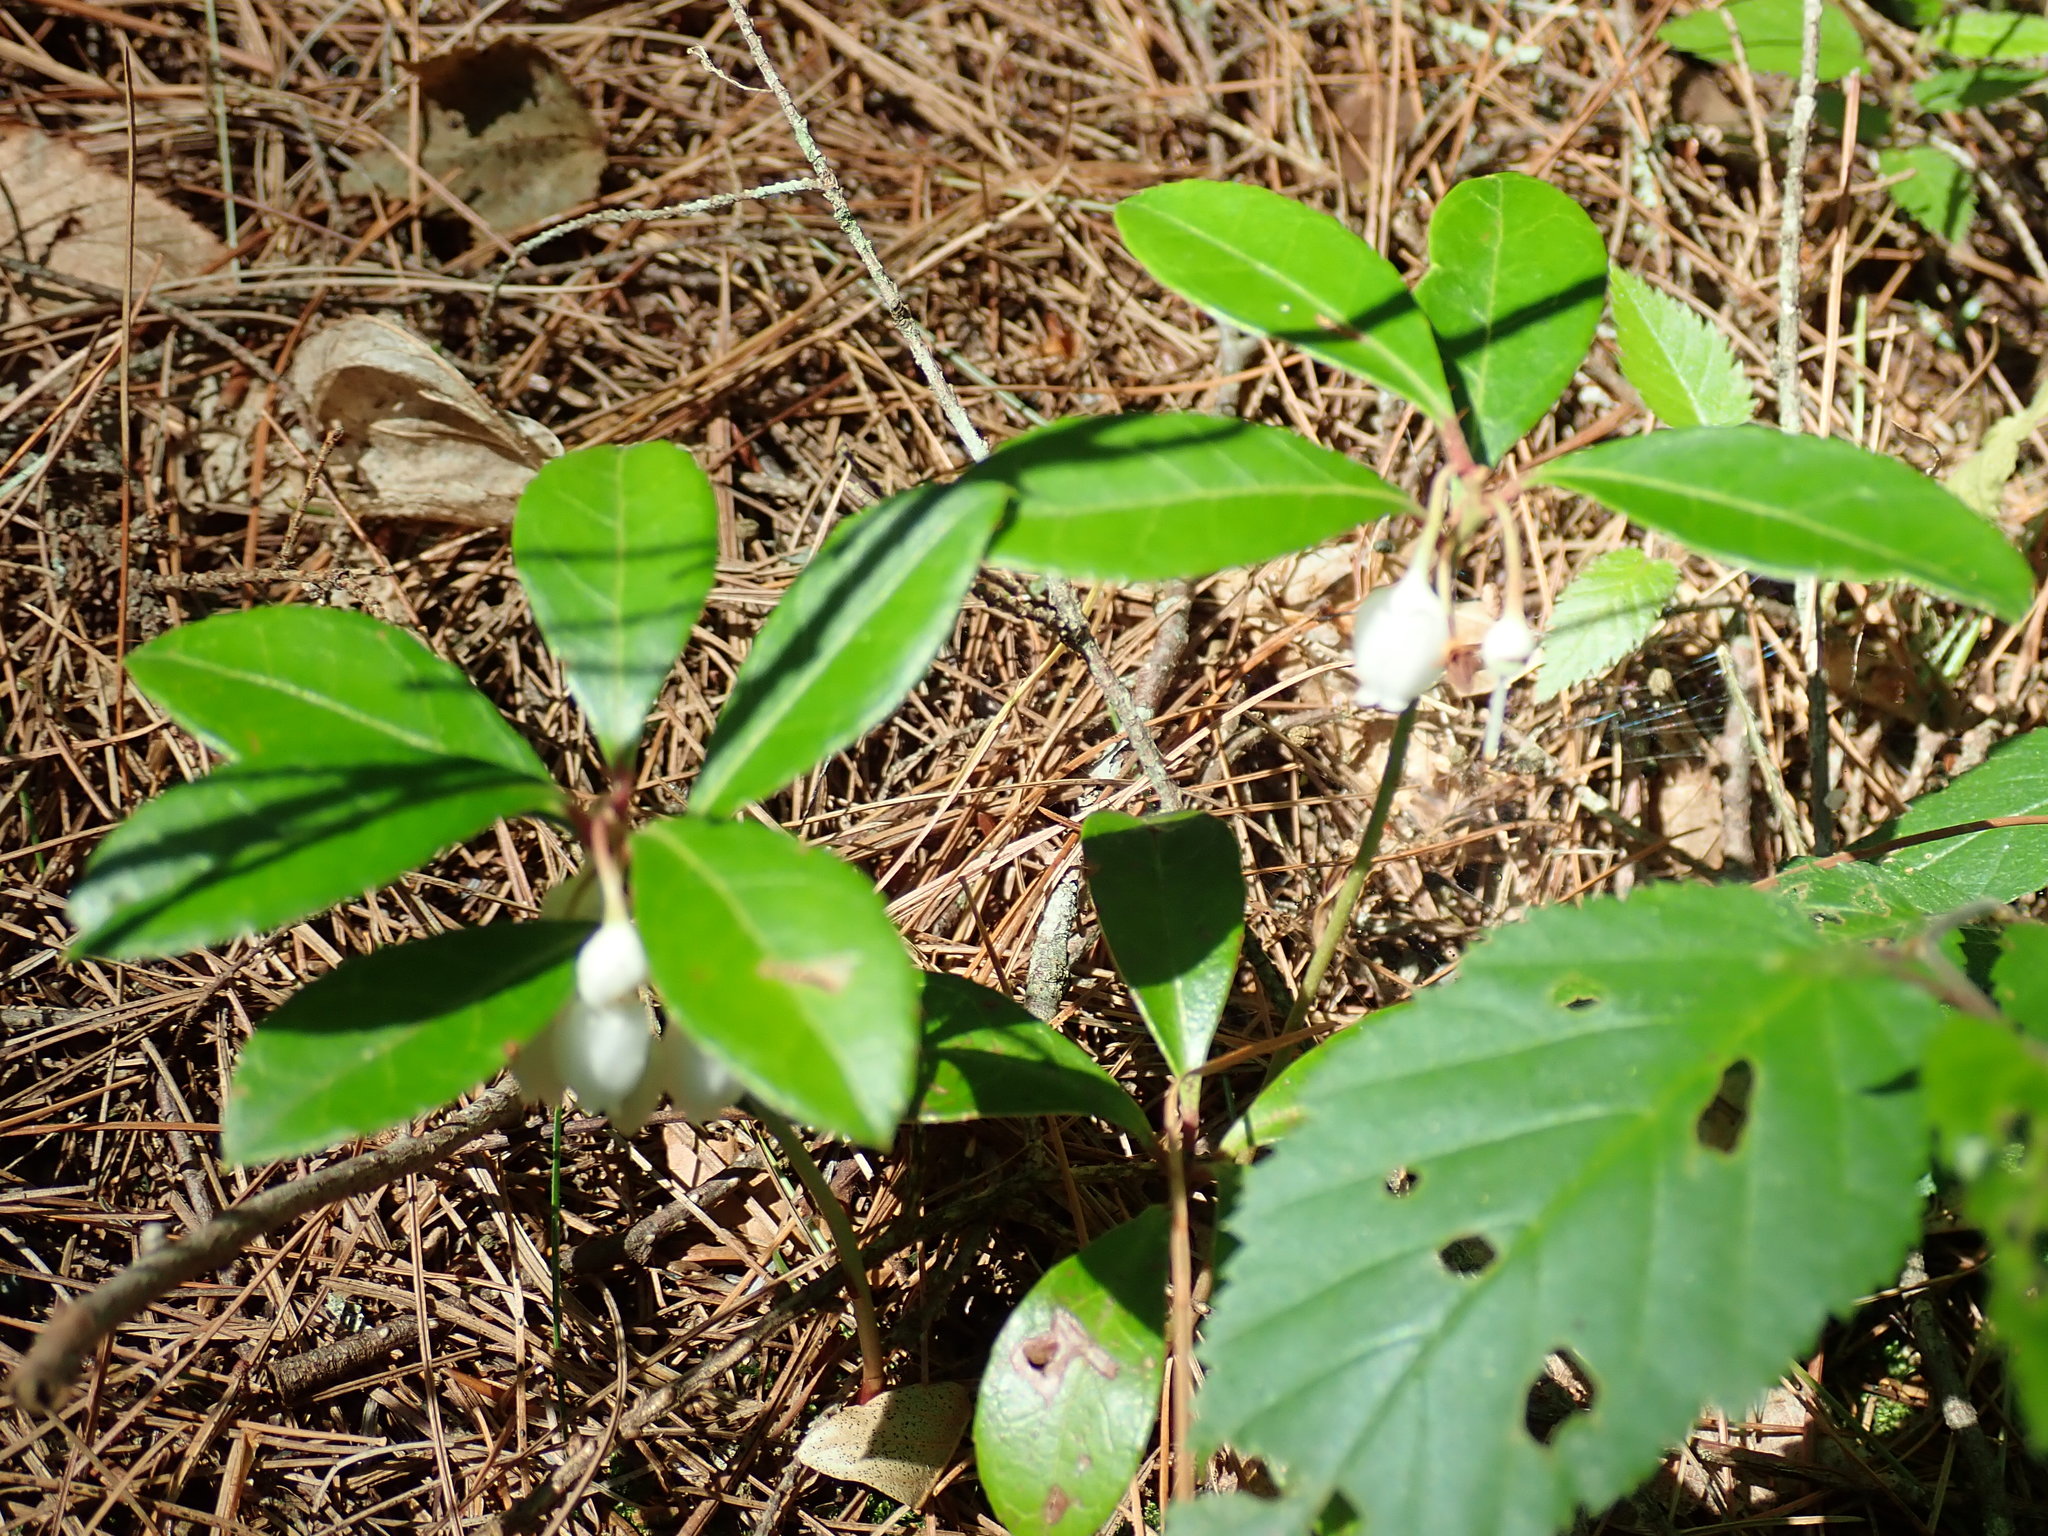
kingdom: Plantae
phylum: Tracheophyta
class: Magnoliopsida
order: Ericales
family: Ericaceae
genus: Gaultheria
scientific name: Gaultheria procumbens
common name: Checkerberry
